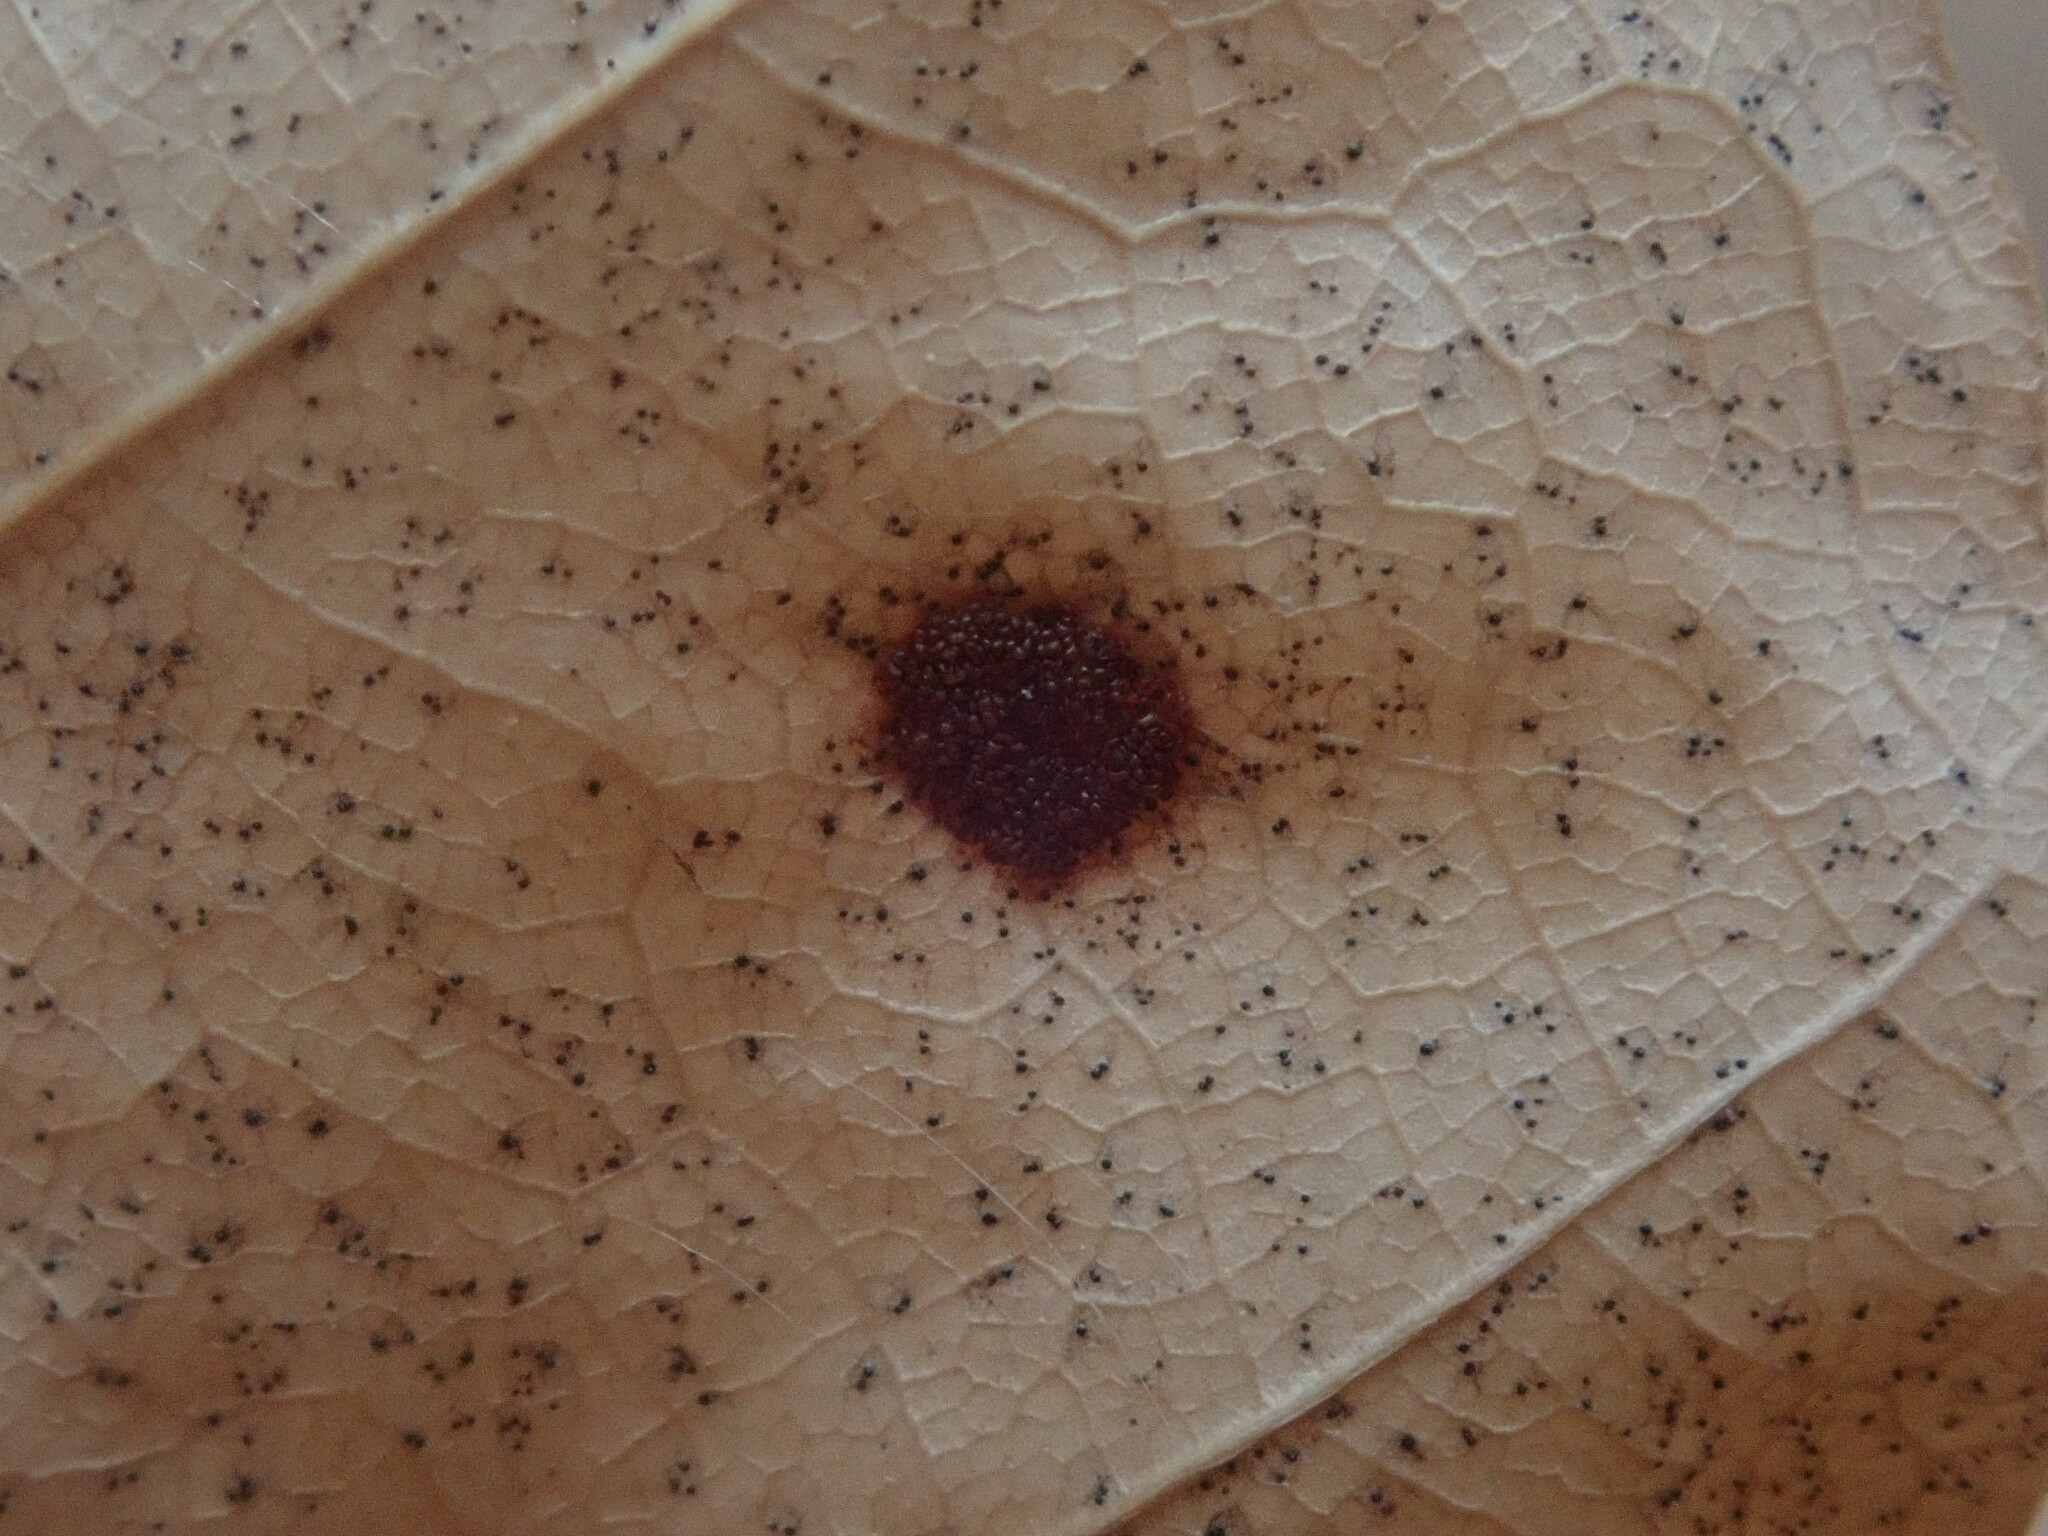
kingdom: Animalia
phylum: Arthropoda
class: Arachnida
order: Trombidiformes
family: Eriophyidae
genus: Acalitus
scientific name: Acalitus
